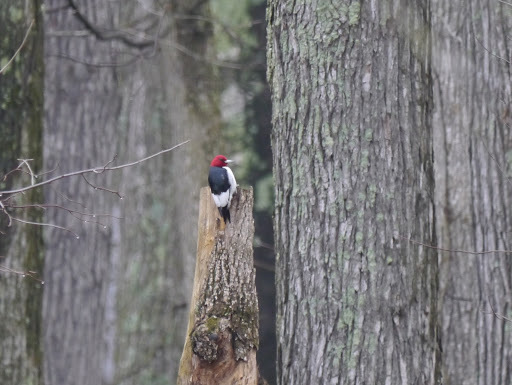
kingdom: Animalia
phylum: Chordata
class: Aves
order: Piciformes
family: Picidae
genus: Melanerpes
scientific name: Melanerpes erythrocephalus
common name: Red-headed woodpecker
